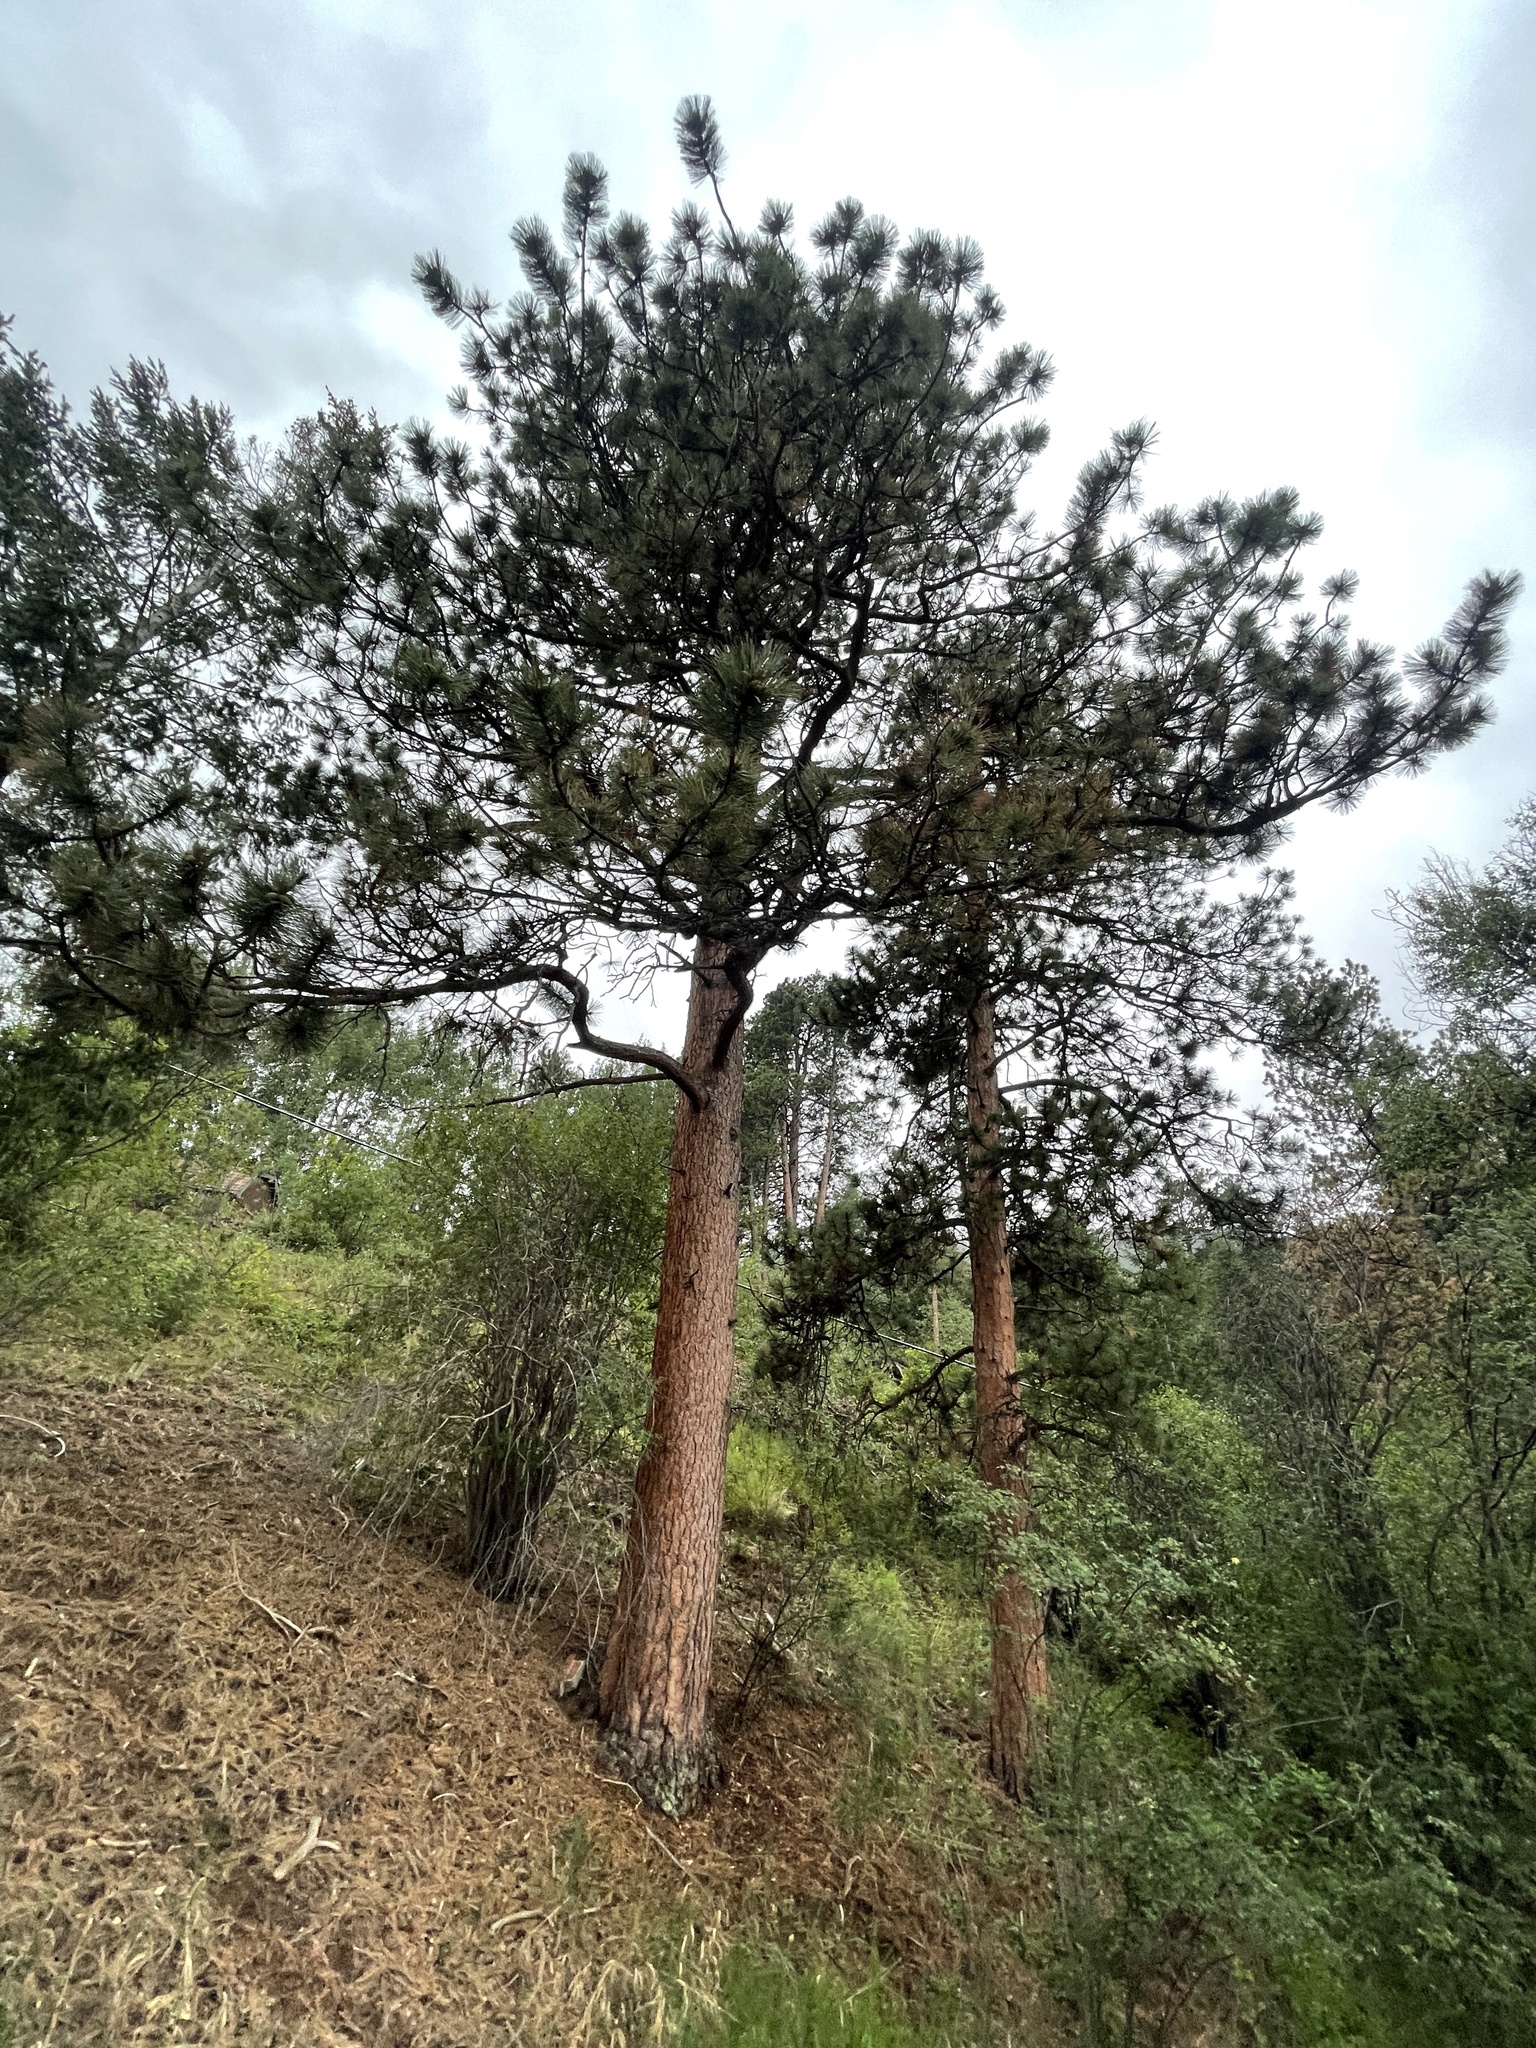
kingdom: Plantae
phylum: Tracheophyta
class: Pinopsida
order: Pinales
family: Pinaceae
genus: Pinus
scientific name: Pinus ponderosa
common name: Western yellow-pine
